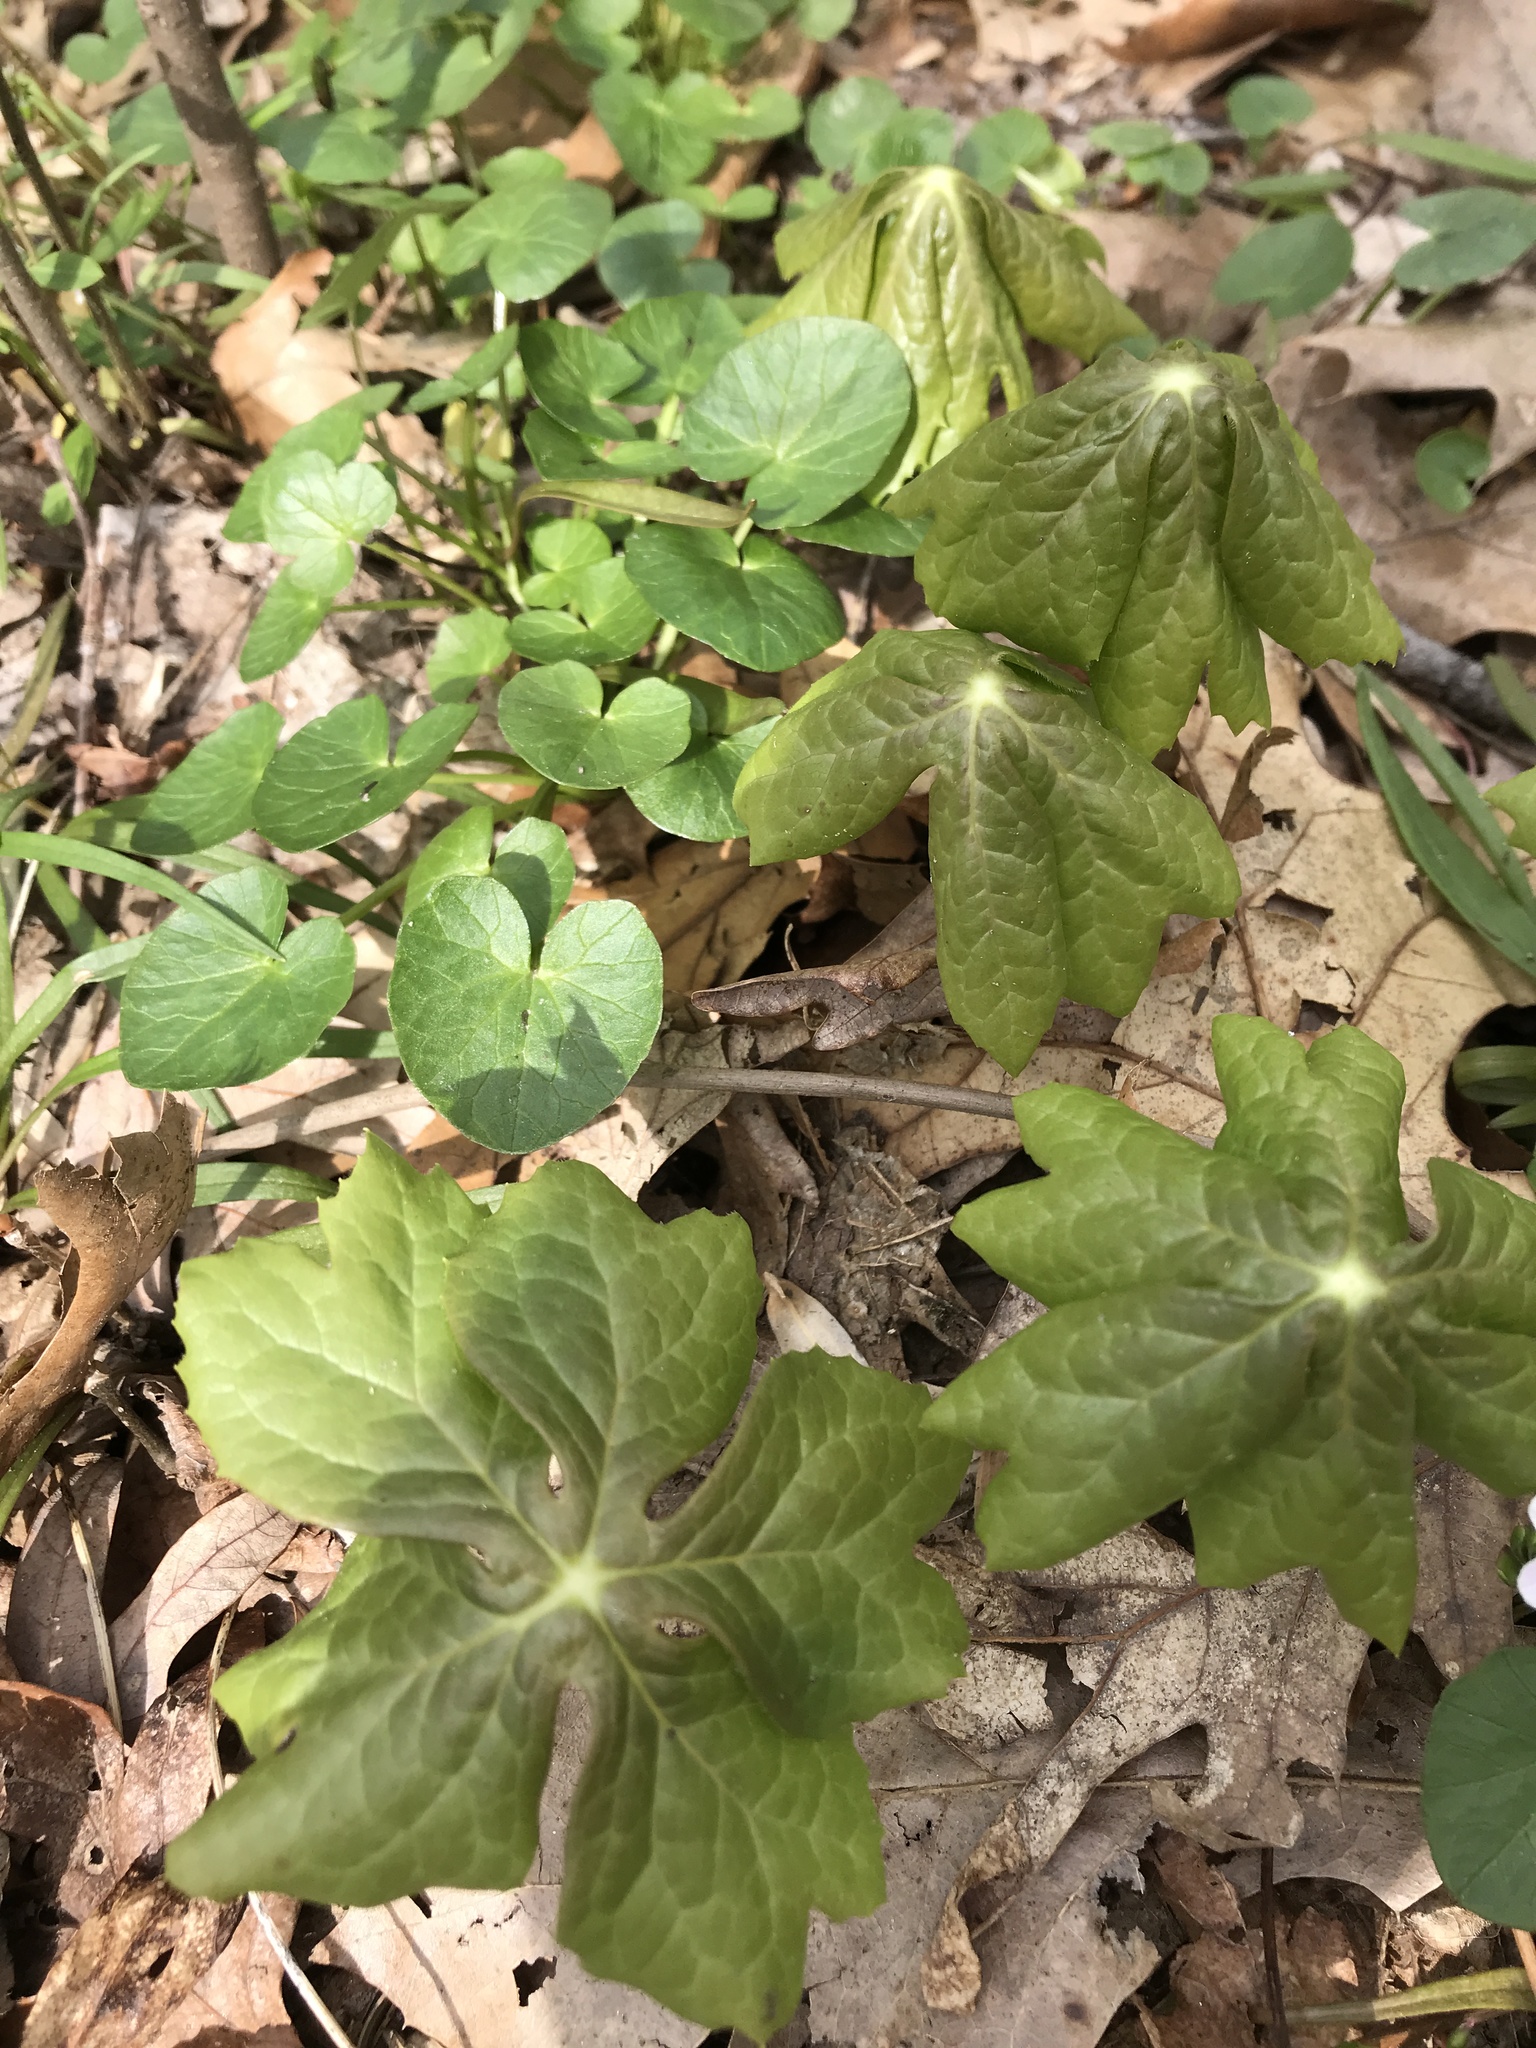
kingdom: Plantae
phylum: Tracheophyta
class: Magnoliopsida
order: Ranunculales
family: Berberidaceae
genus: Podophyllum
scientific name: Podophyllum peltatum
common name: Wild mandrake
